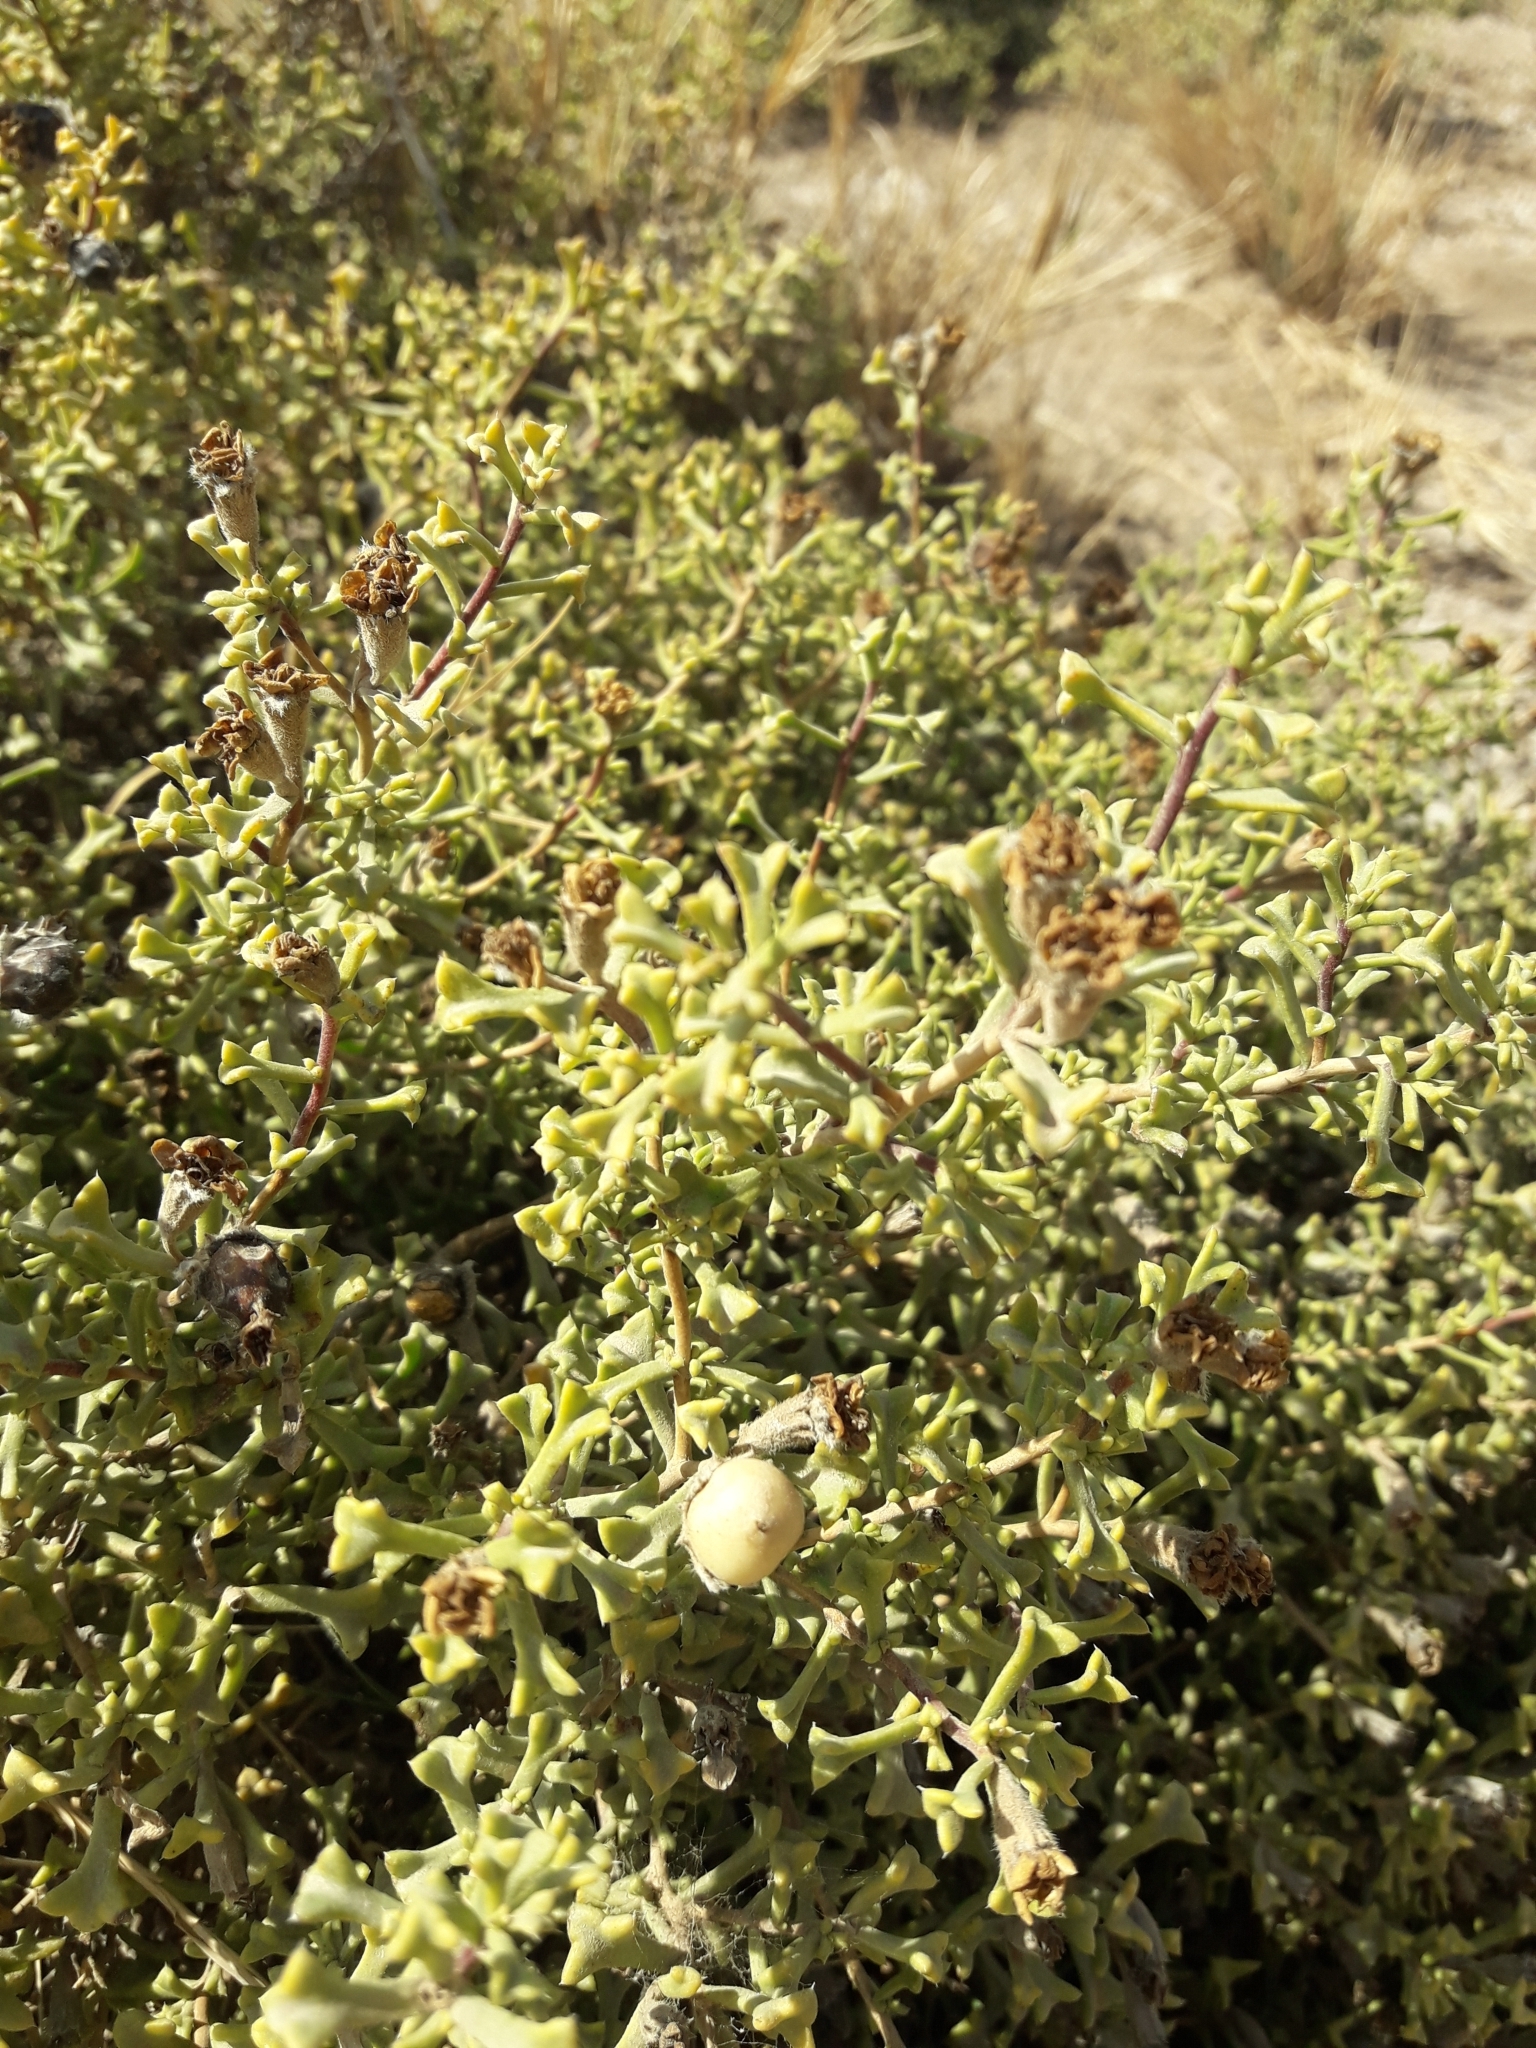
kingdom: Plantae
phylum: Tracheophyta
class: Magnoliopsida
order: Boraginales
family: Ehretiaceae
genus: Ehretia
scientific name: Ehretia cortesia
